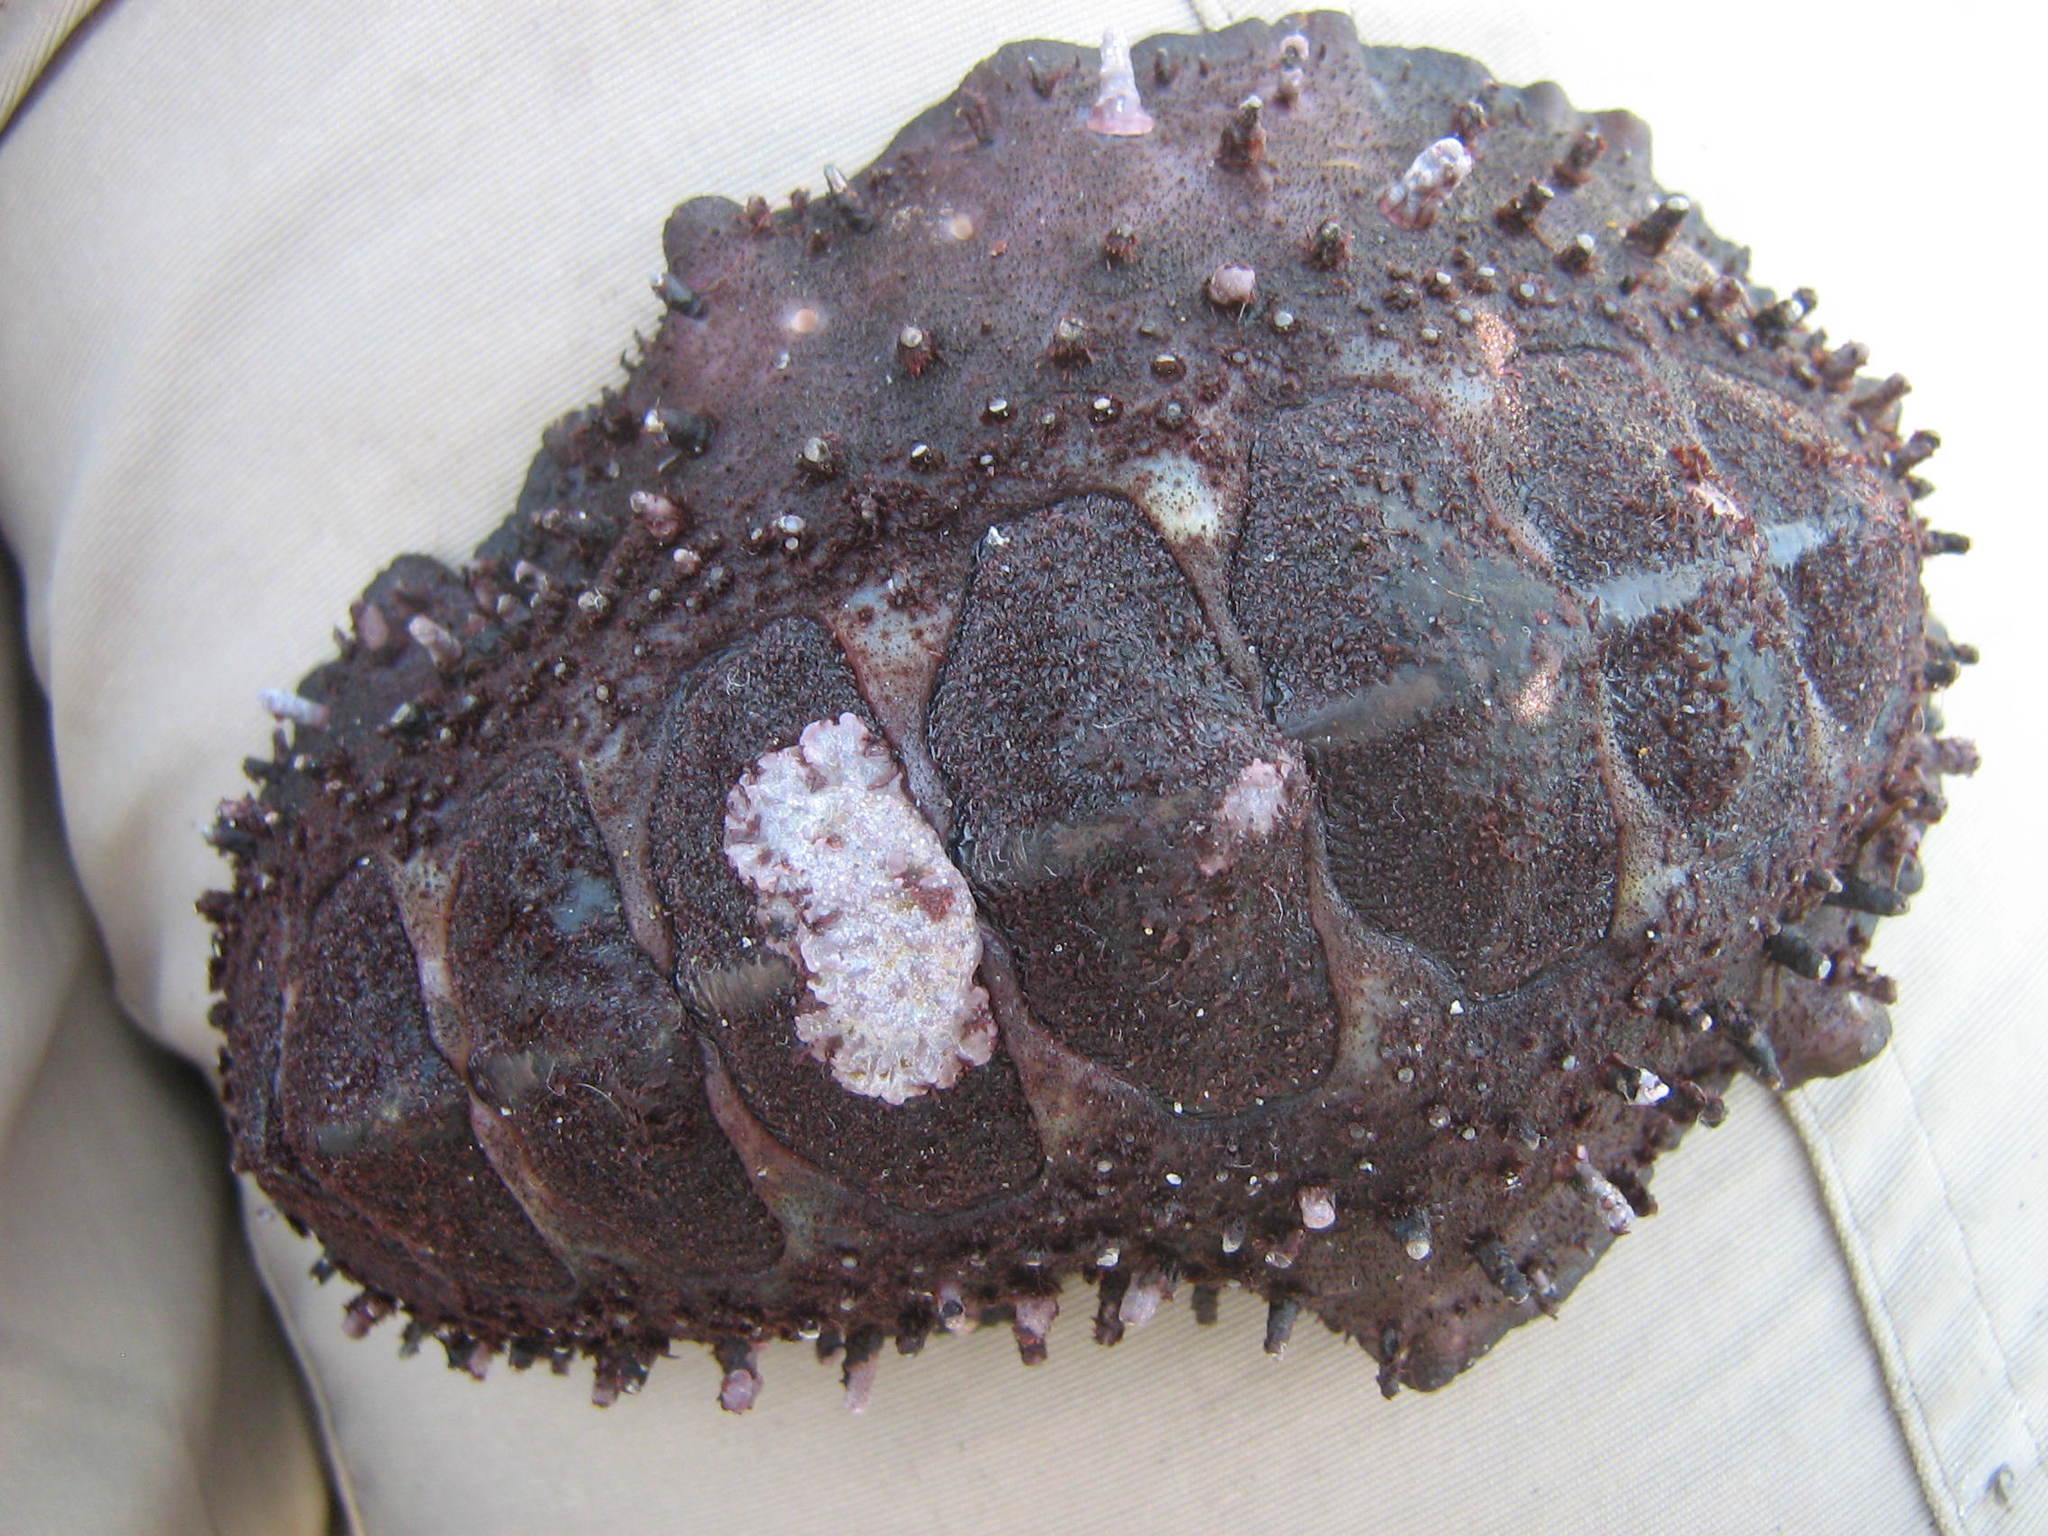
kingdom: Animalia
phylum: Mollusca
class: Polyplacophora
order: Chitonida
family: Chitonidae
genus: Enoplochiton
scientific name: Enoplochiton echinatus
